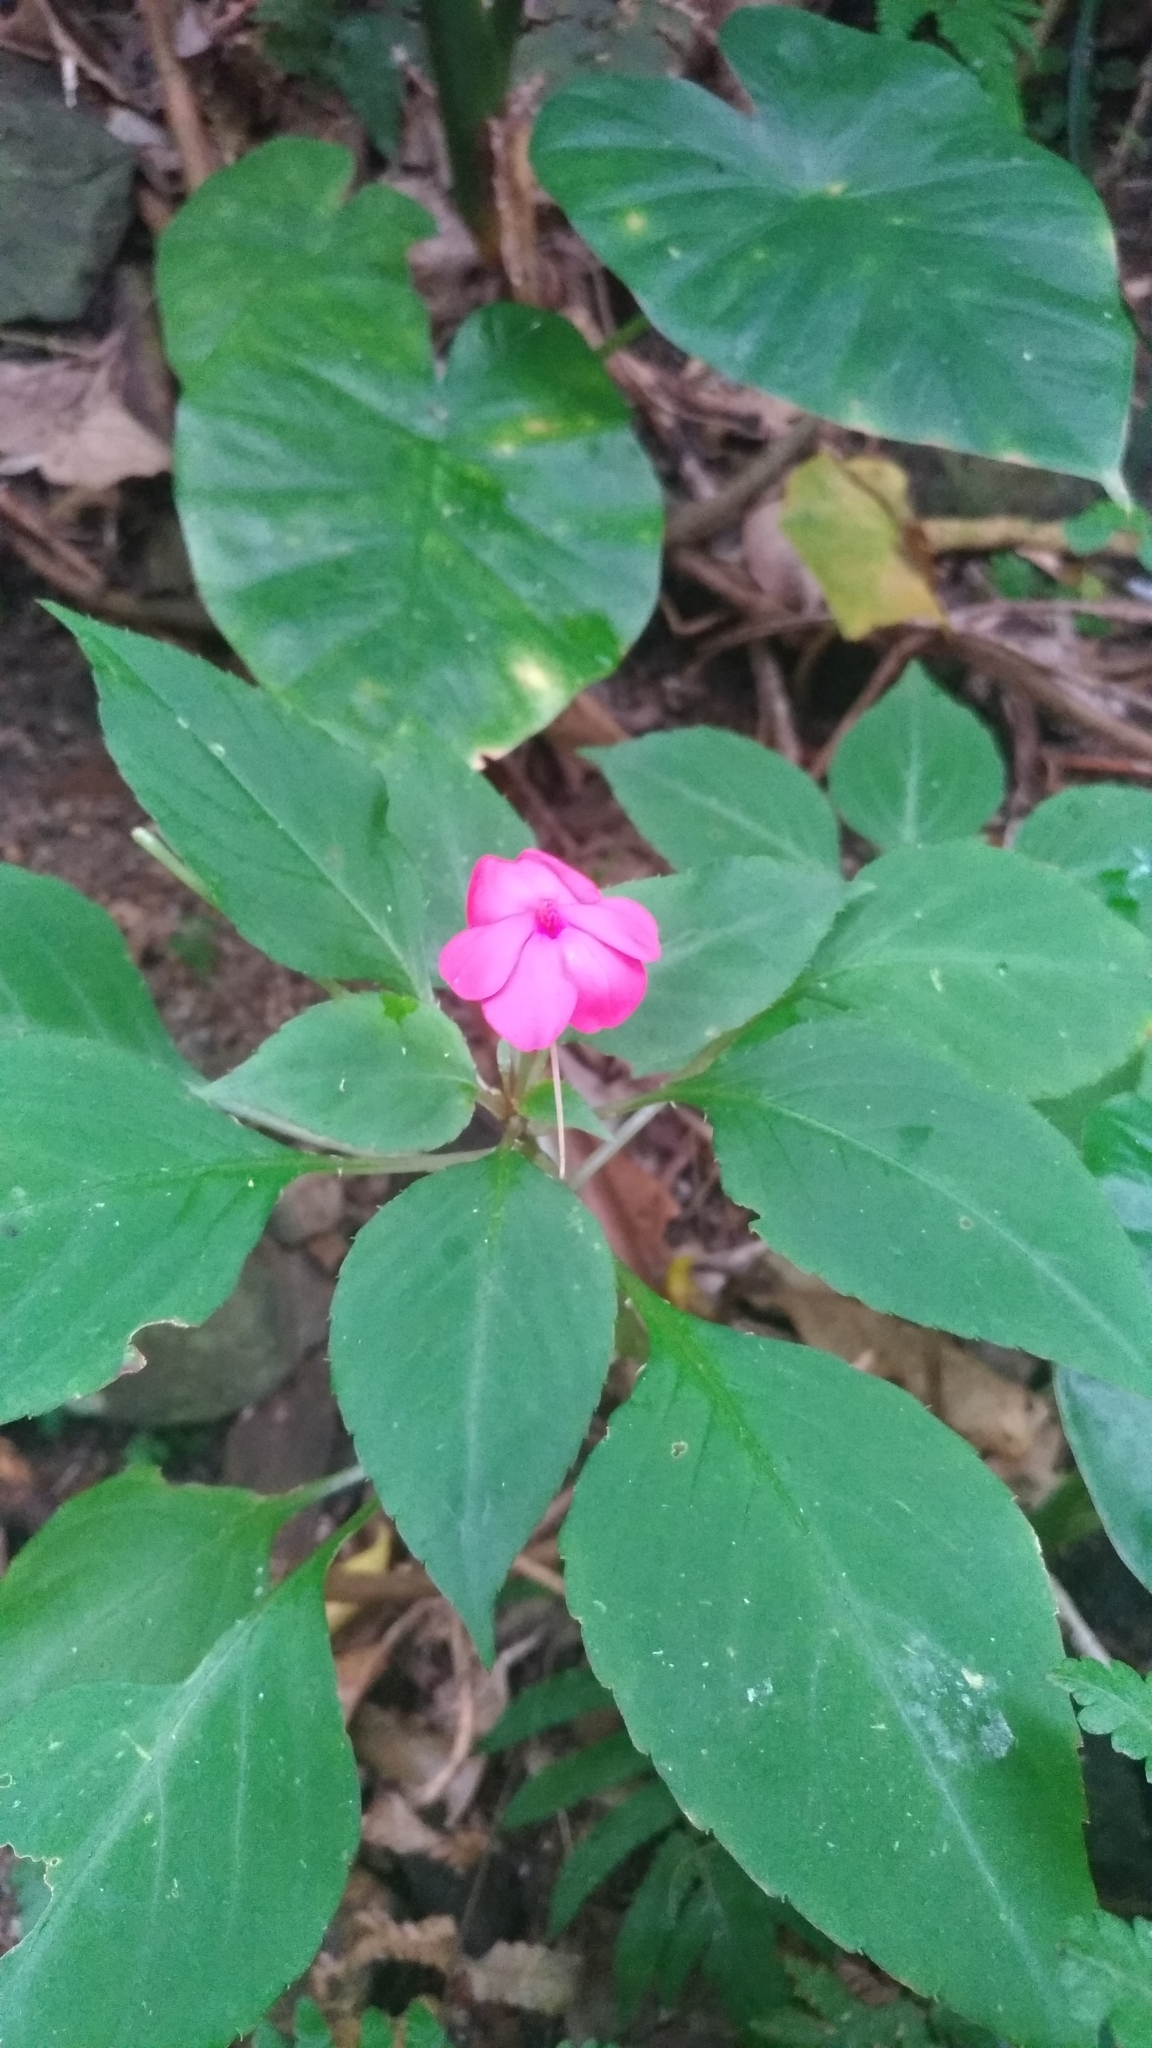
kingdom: Plantae
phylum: Tracheophyta
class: Magnoliopsida
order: Ericales
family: Balsaminaceae
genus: Impatiens
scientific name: Impatiens walleriana
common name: Buzzy lizzy
